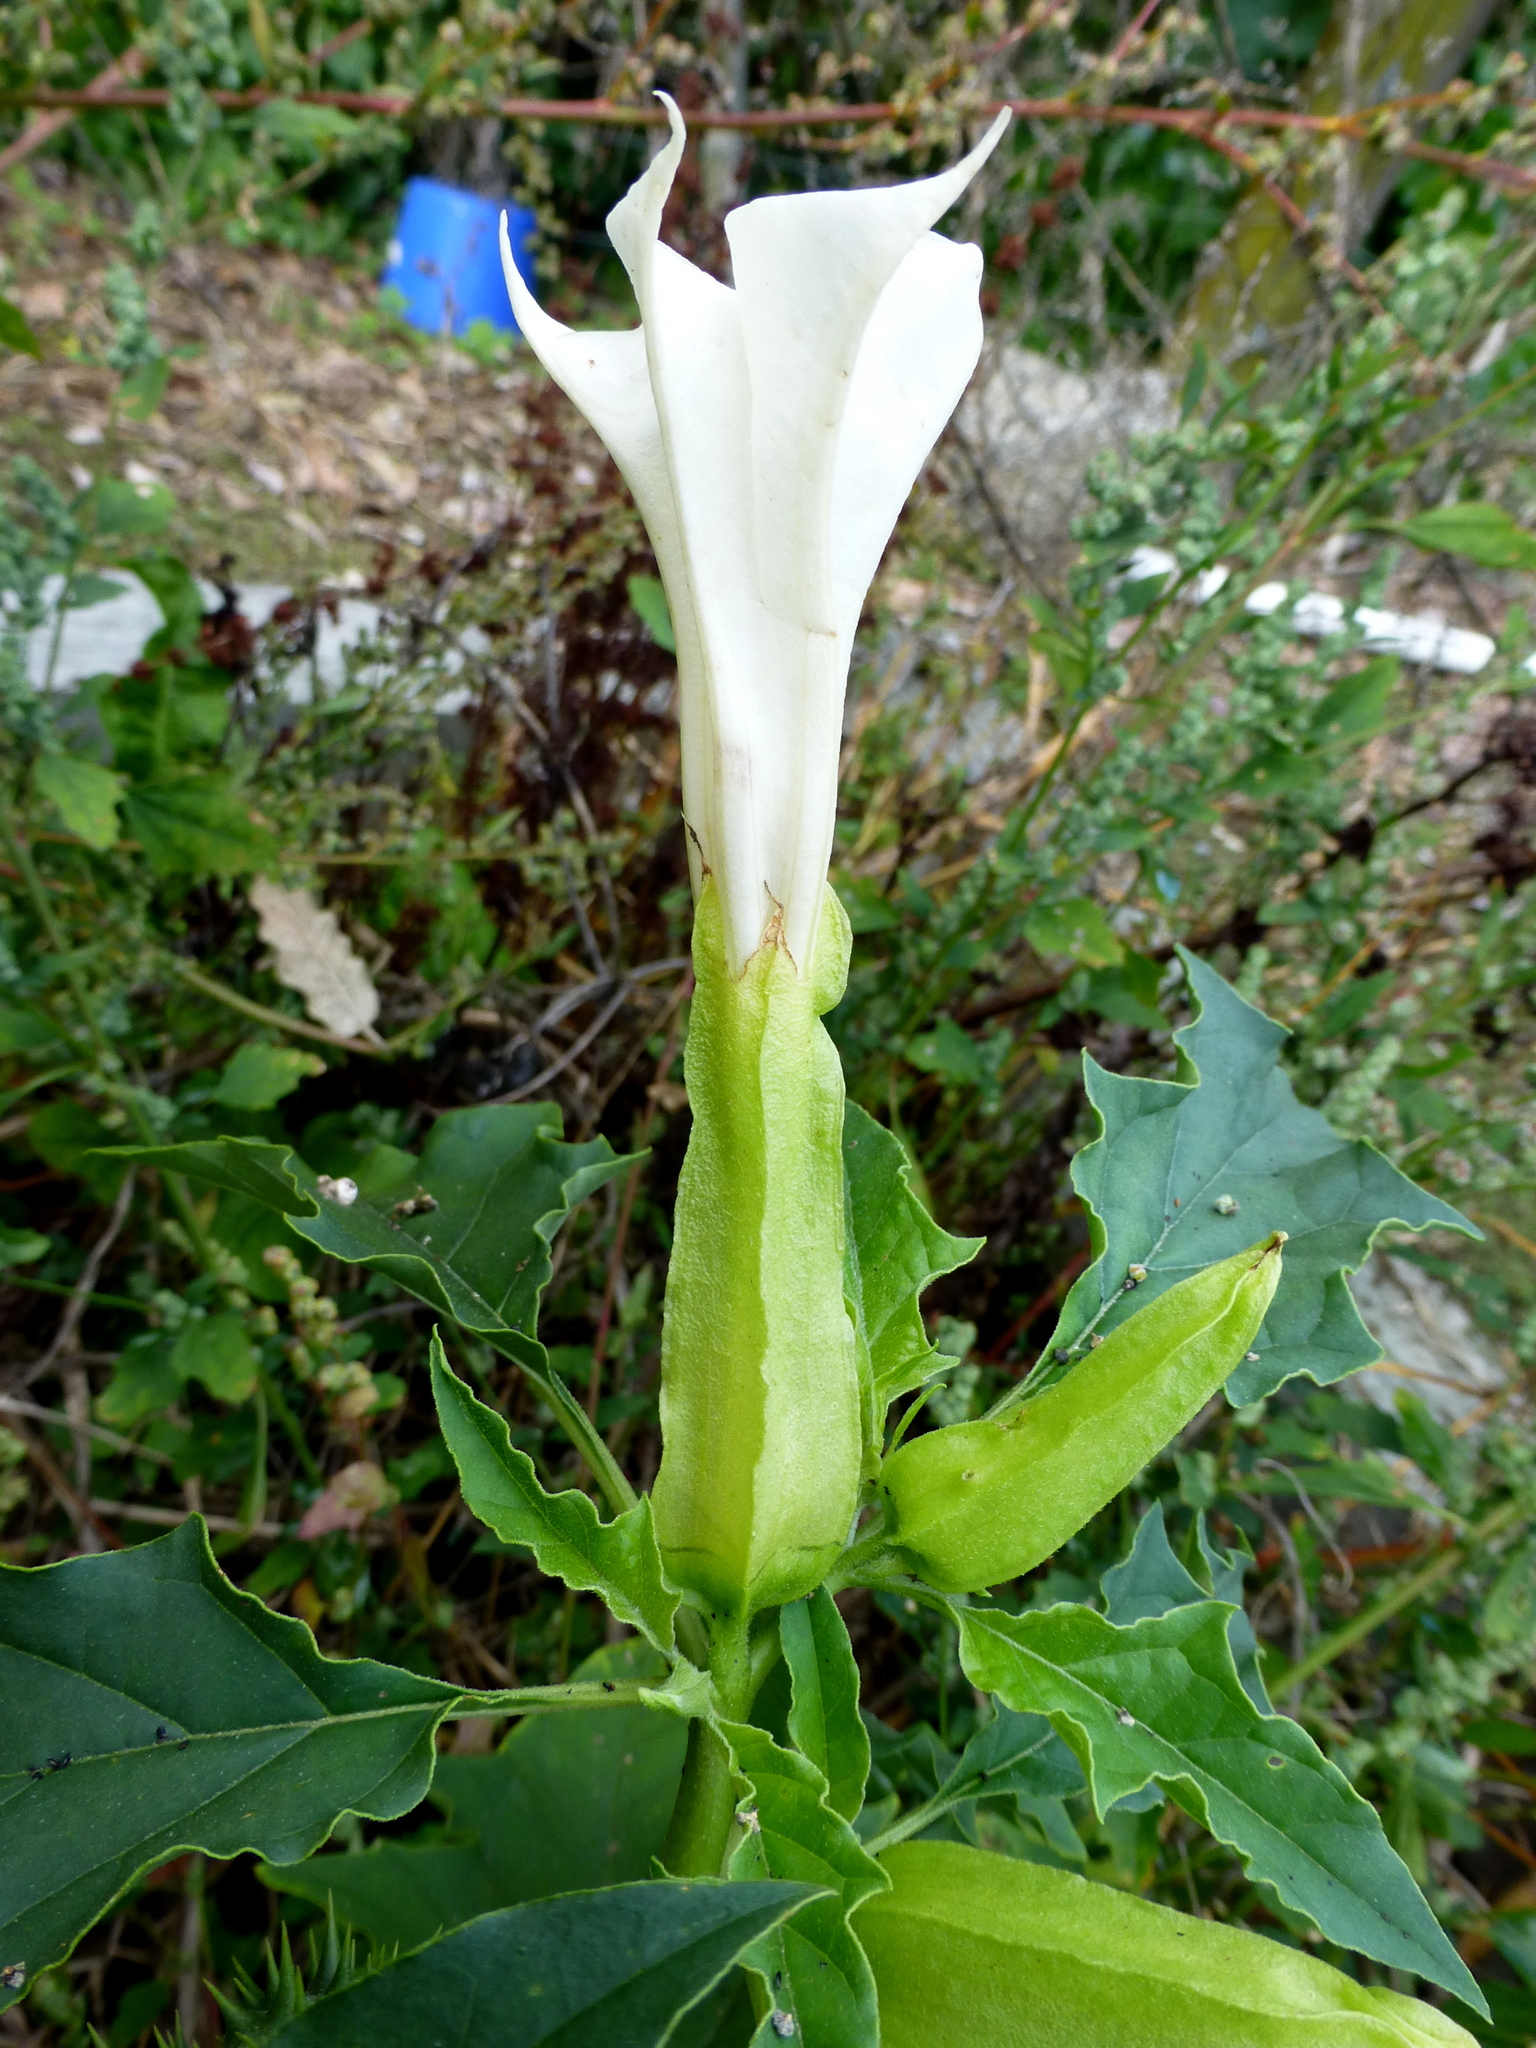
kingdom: Plantae
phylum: Tracheophyta
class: Magnoliopsida
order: Solanales
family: Solanaceae
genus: Datura
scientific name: Datura stramonium
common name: Thorn-apple
